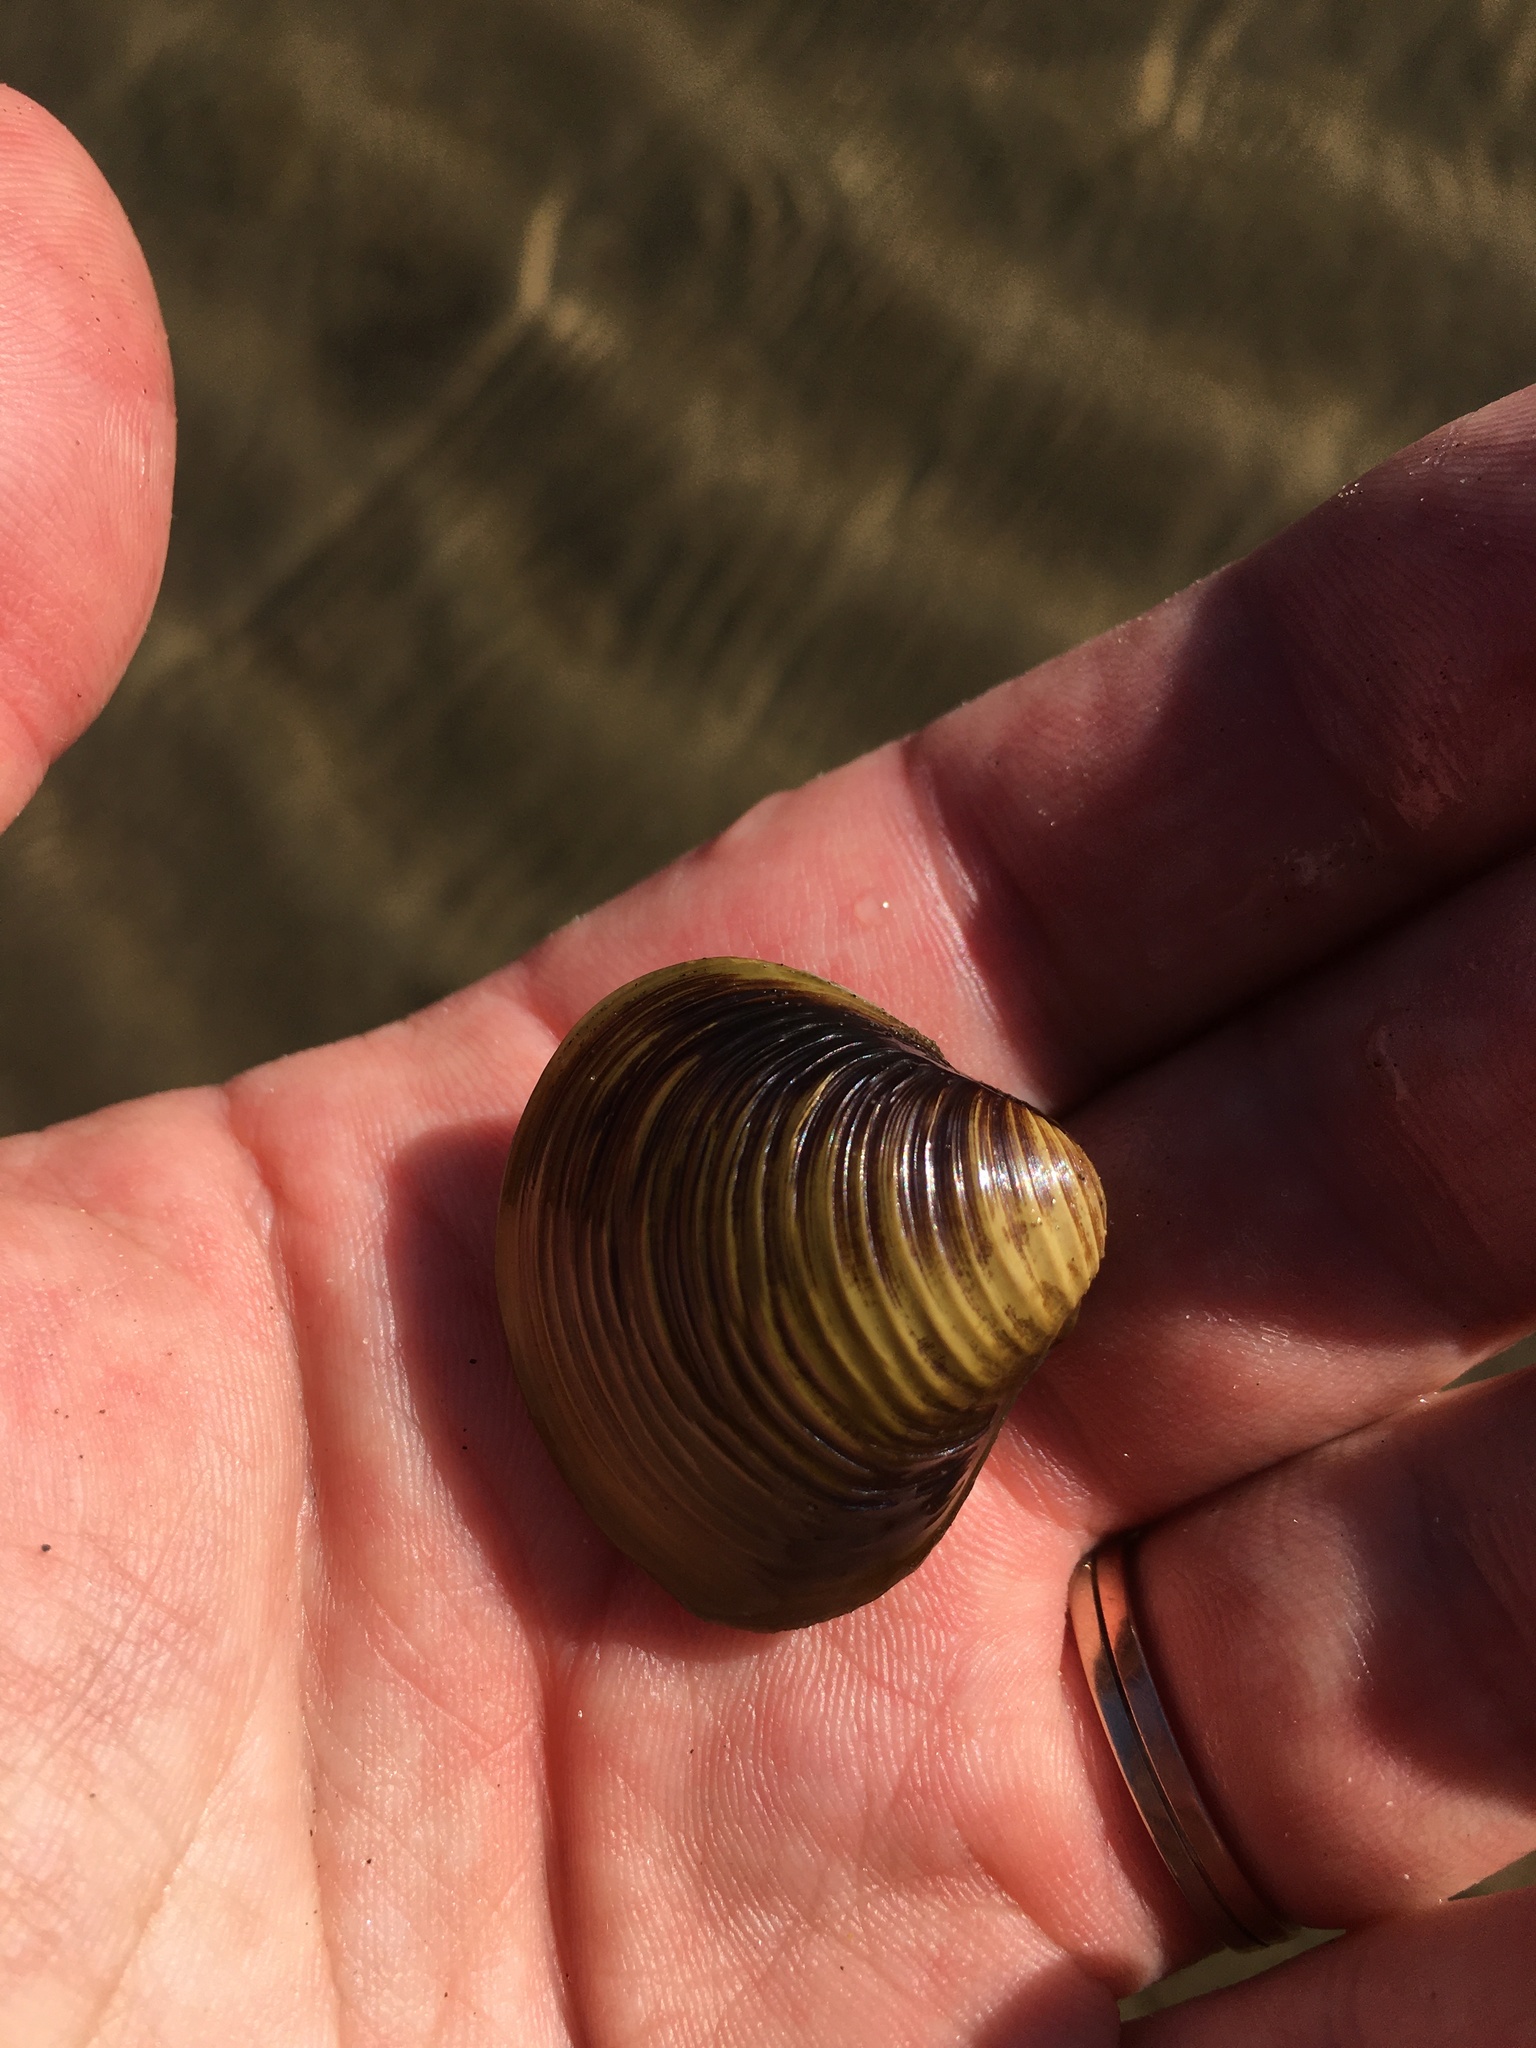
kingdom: Animalia
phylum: Mollusca
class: Bivalvia
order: Venerida
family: Cyrenidae
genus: Corbicula
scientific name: Corbicula fluminea
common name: Asian clam
